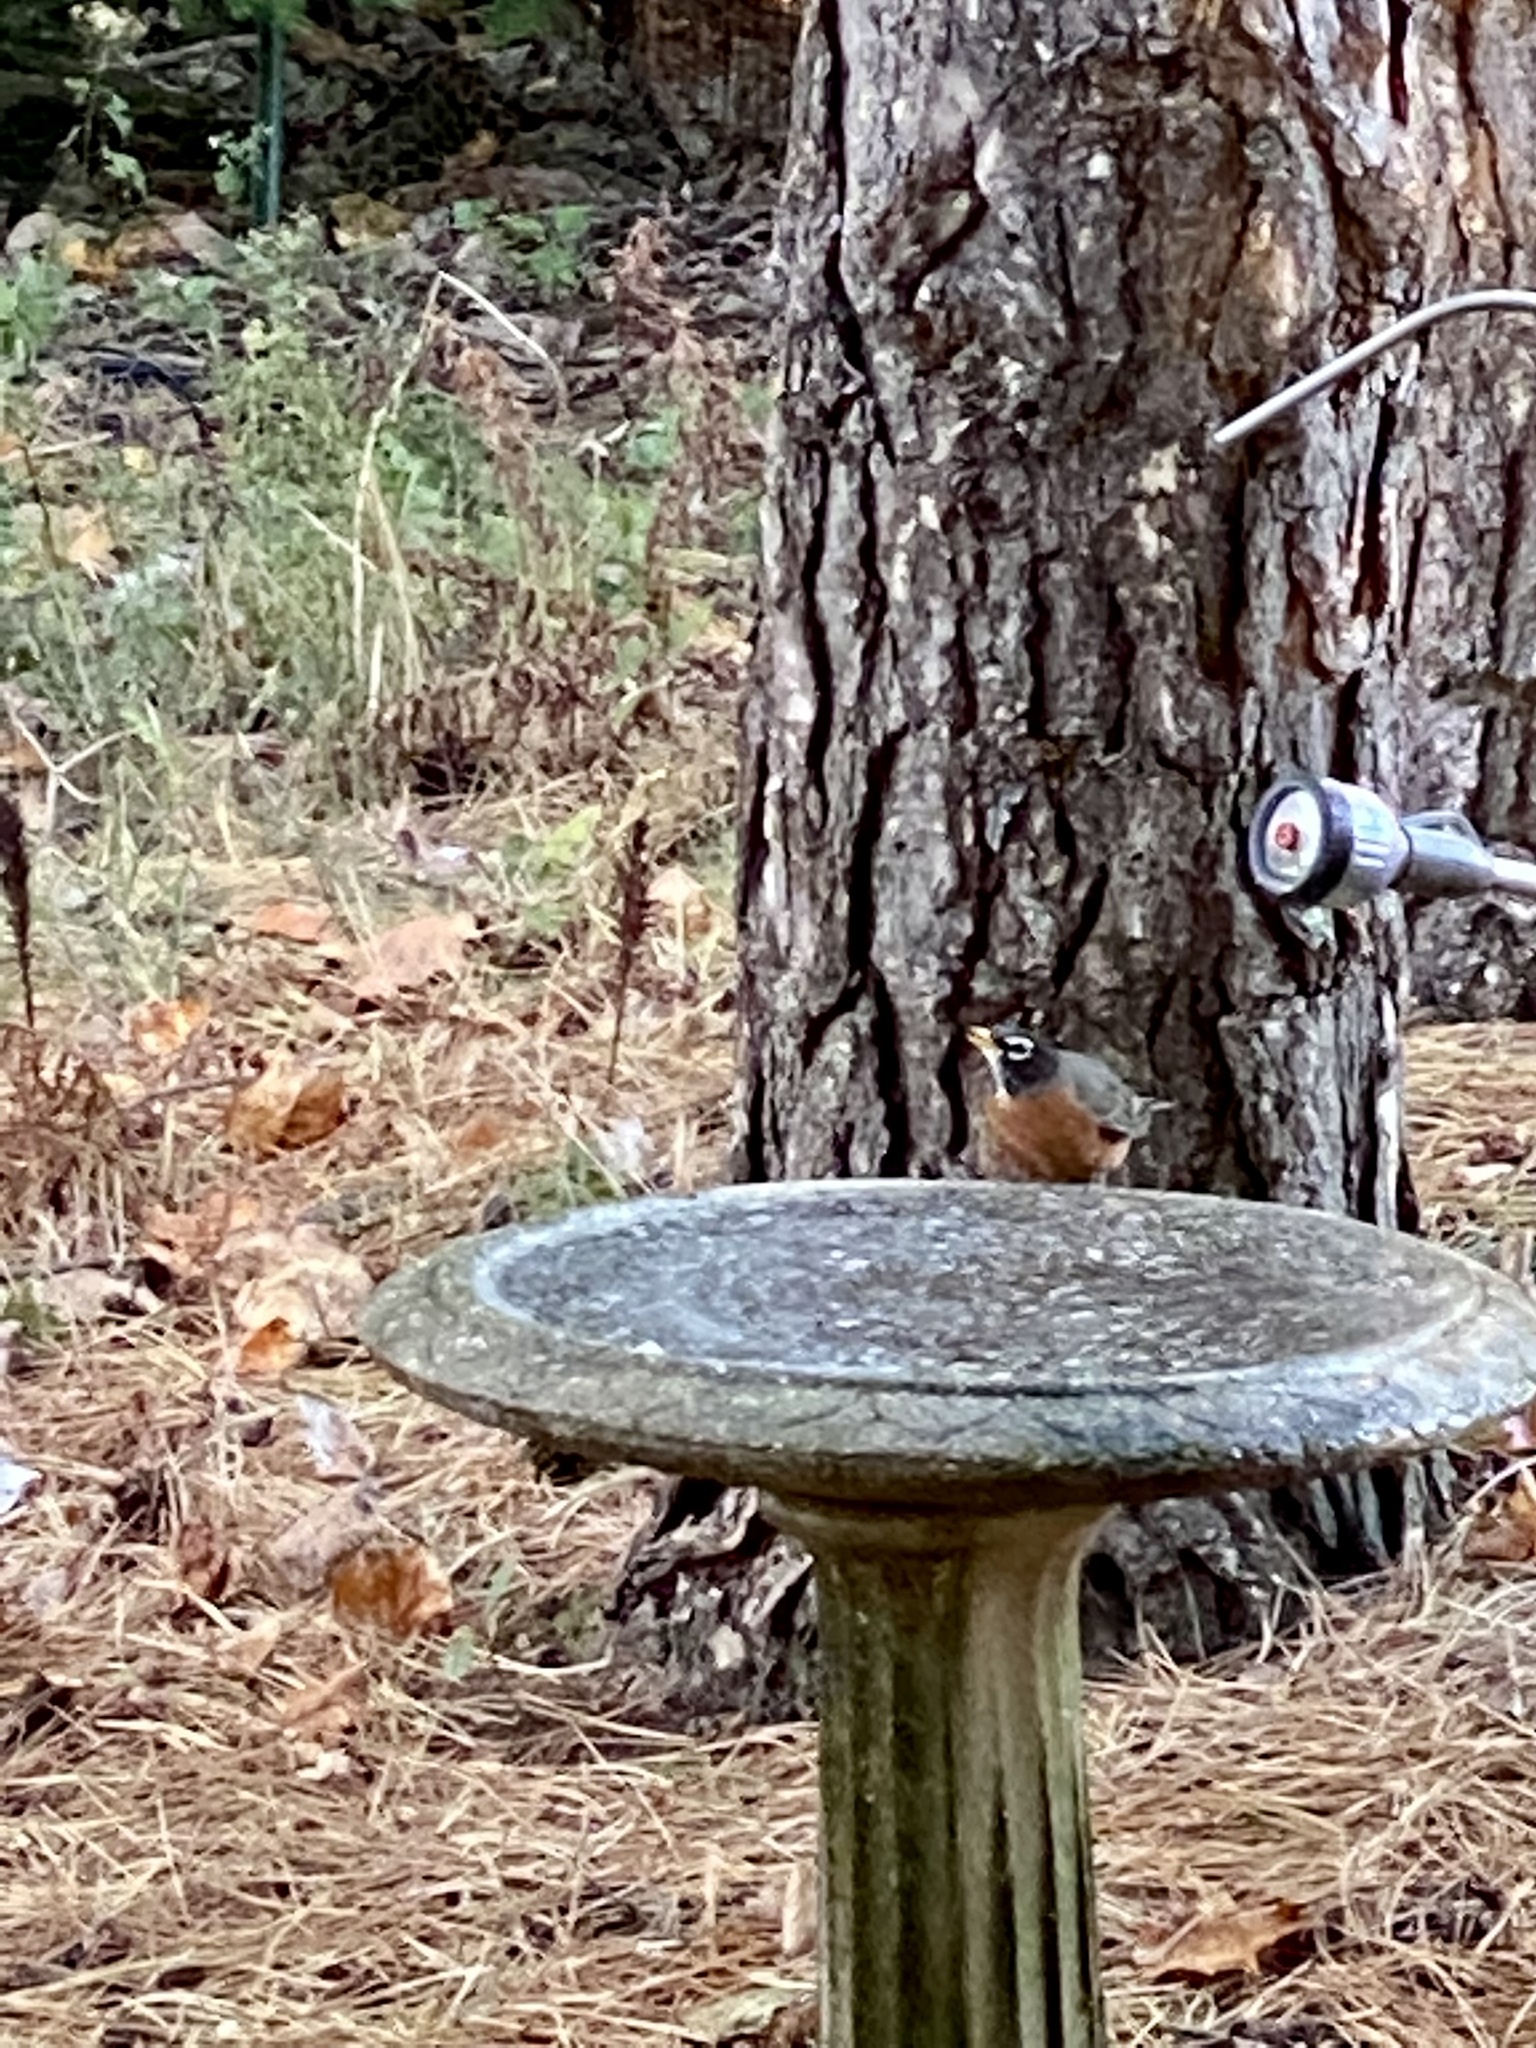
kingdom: Animalia
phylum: Chordata
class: Aves
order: Passeriformes
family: Turdidae
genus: Turdus
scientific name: Turdus migratorius
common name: American robin
